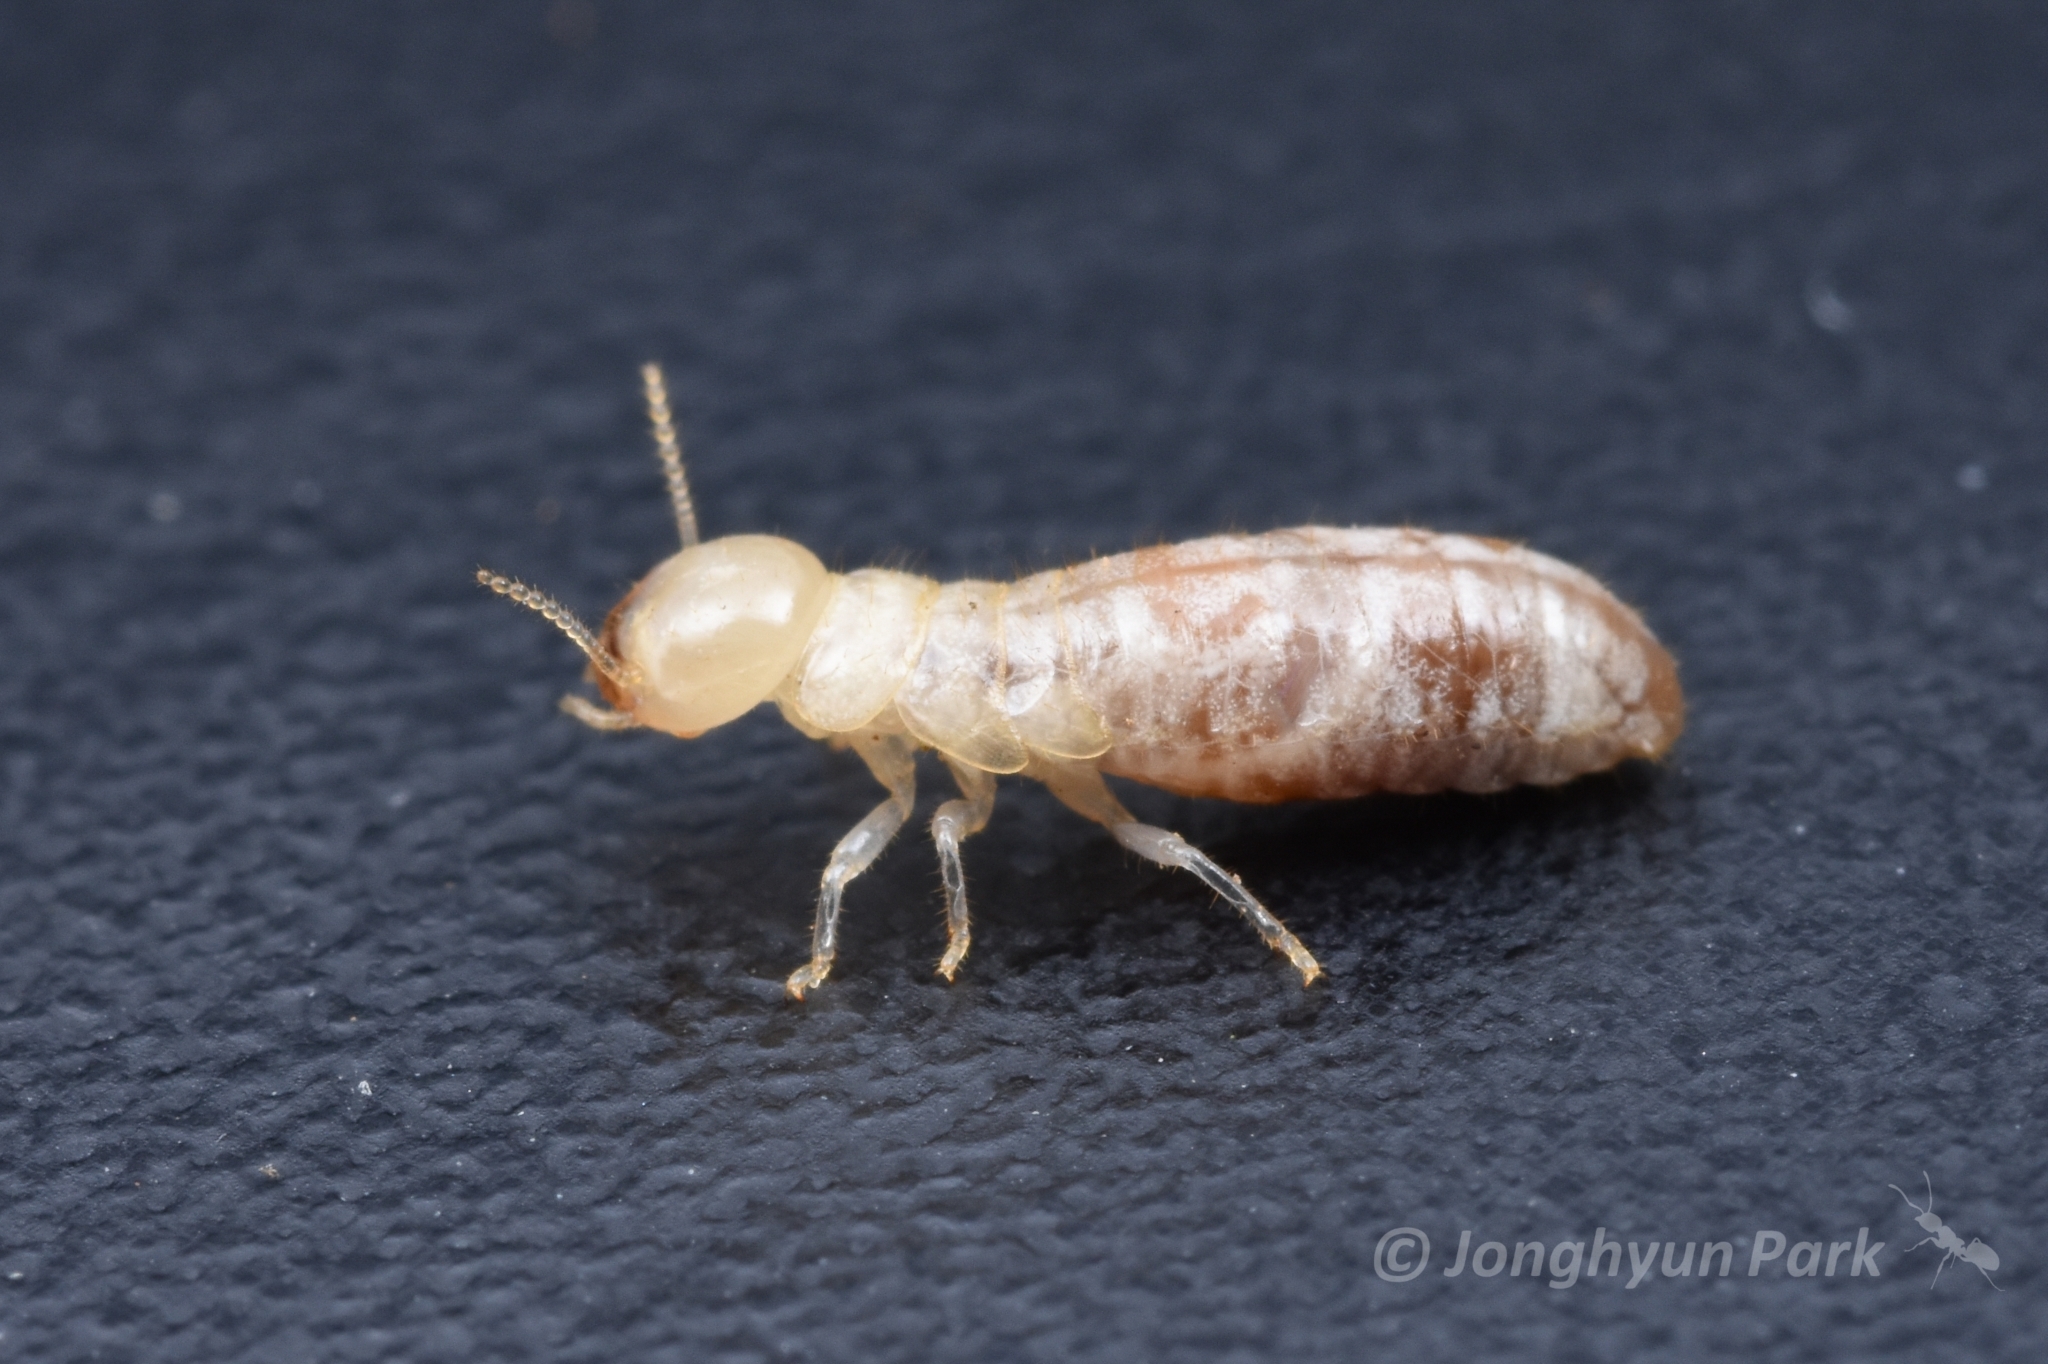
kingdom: Animalia
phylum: Arthropoda
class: Insecta
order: Blattodea
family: Kalotermitidae
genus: Neotermes
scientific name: Neotermes sugioi
